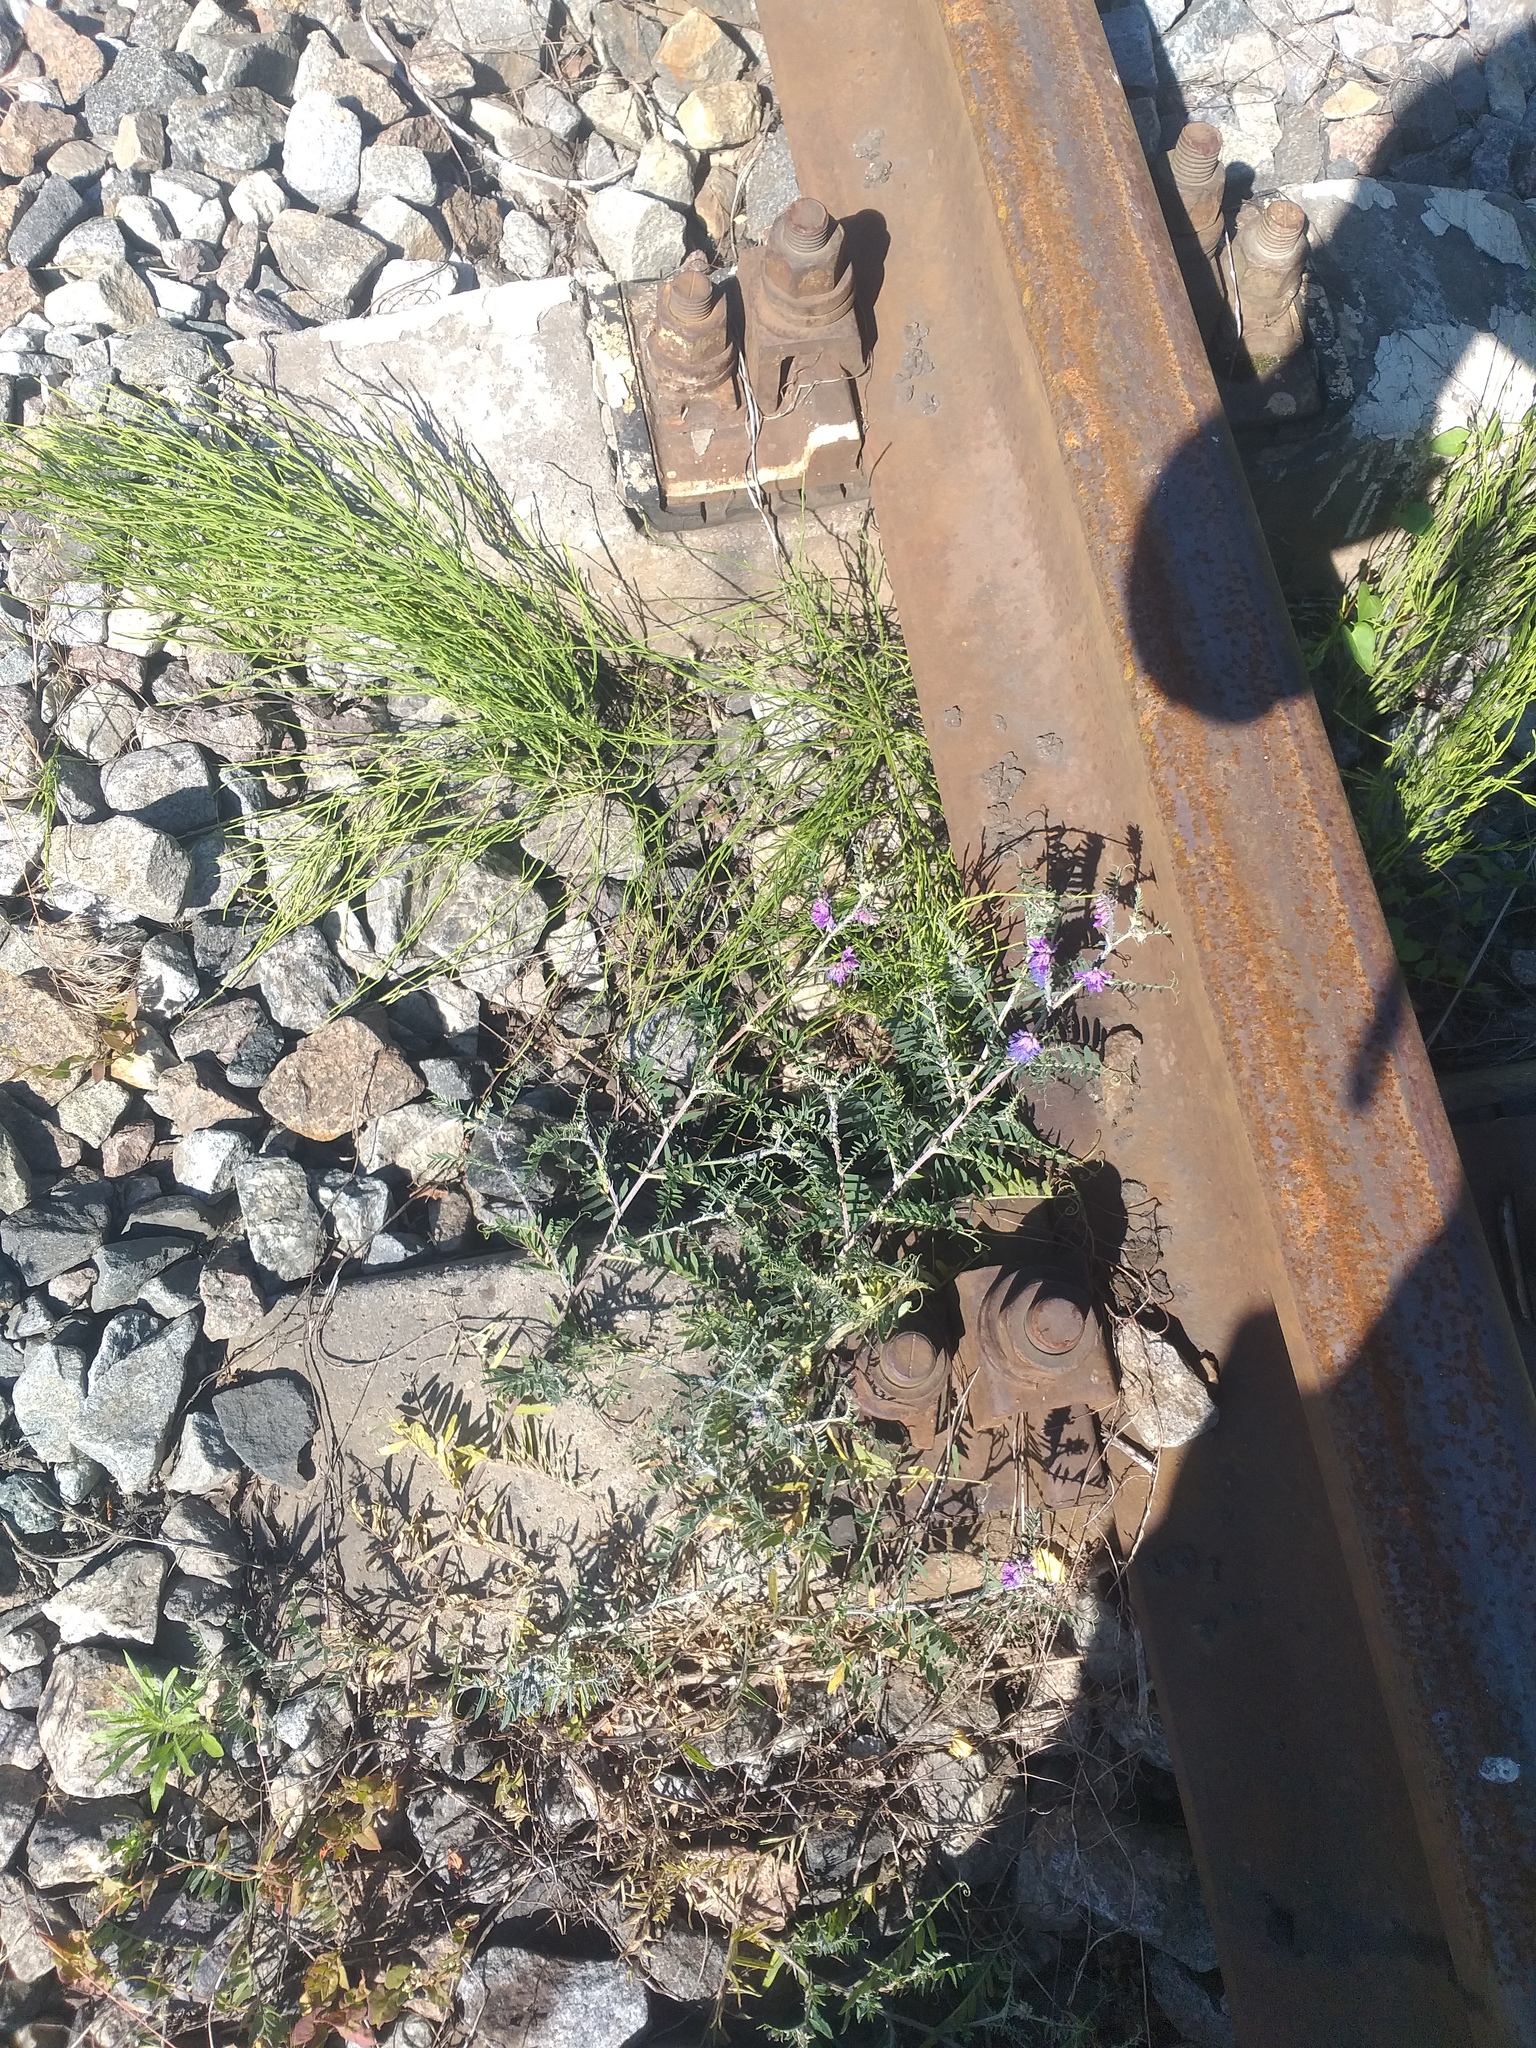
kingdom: Plantae
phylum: Tracheophyta
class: Magnoliopsida
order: Fabales
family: Fabaceae
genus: Vicia
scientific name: Vicia cracca
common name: Bird vetch
